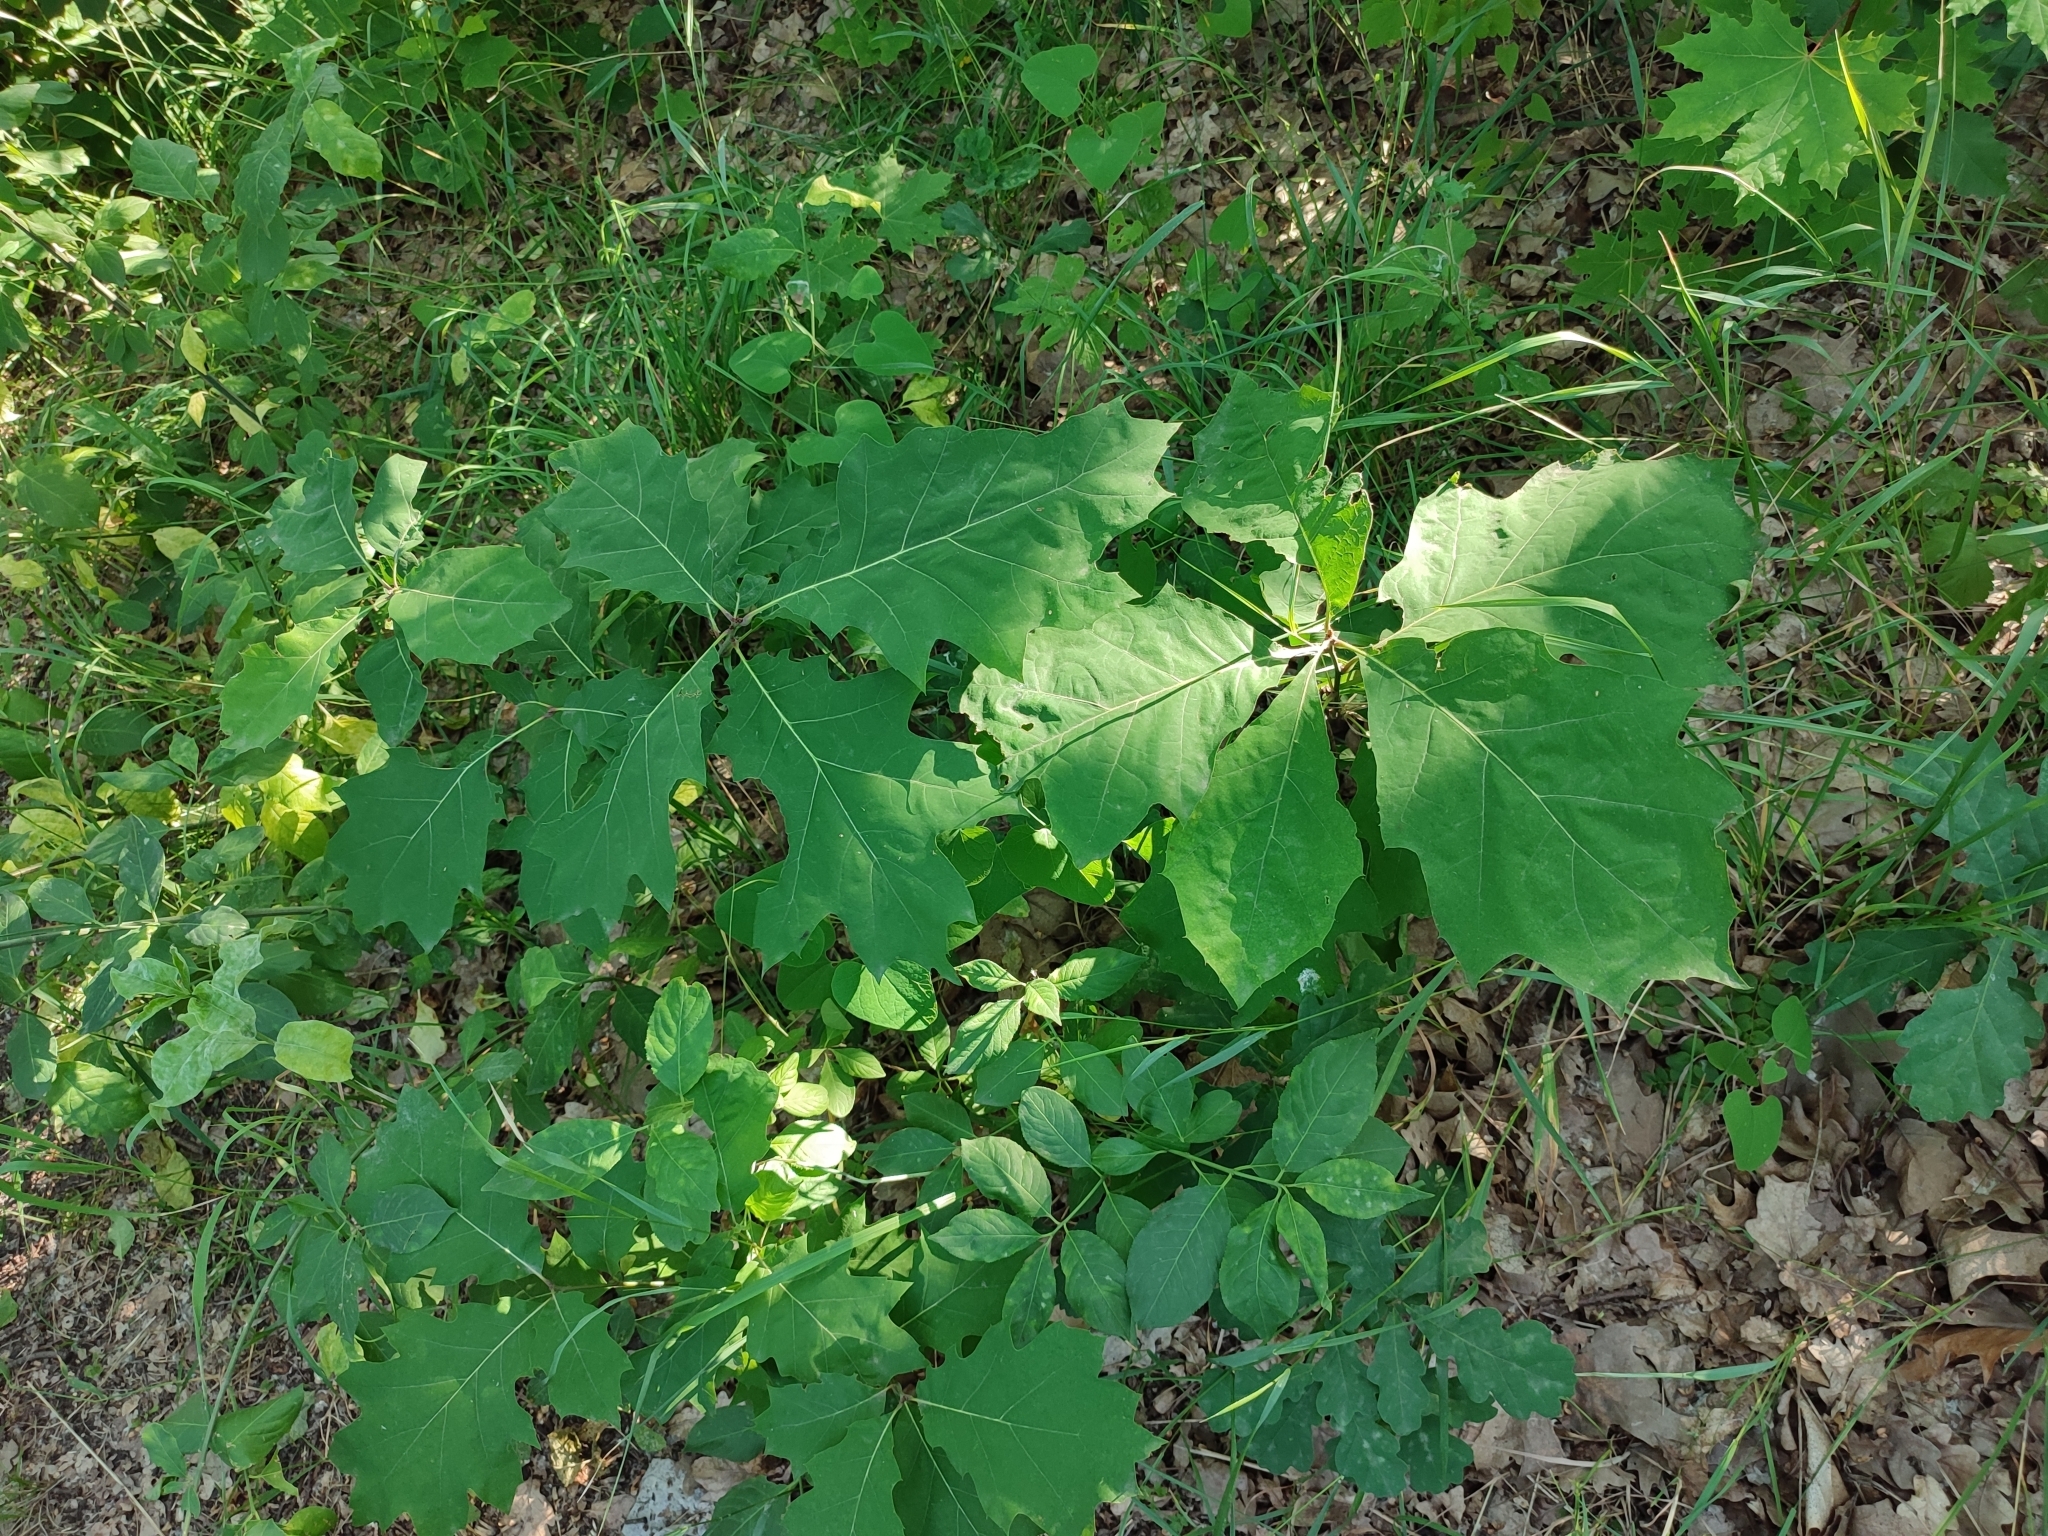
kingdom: Plantae
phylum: Tracheophyta
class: Magnoliopsida
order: Fagales
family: Fagaceae
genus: Quercus
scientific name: Quercus rubra
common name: Red oak
